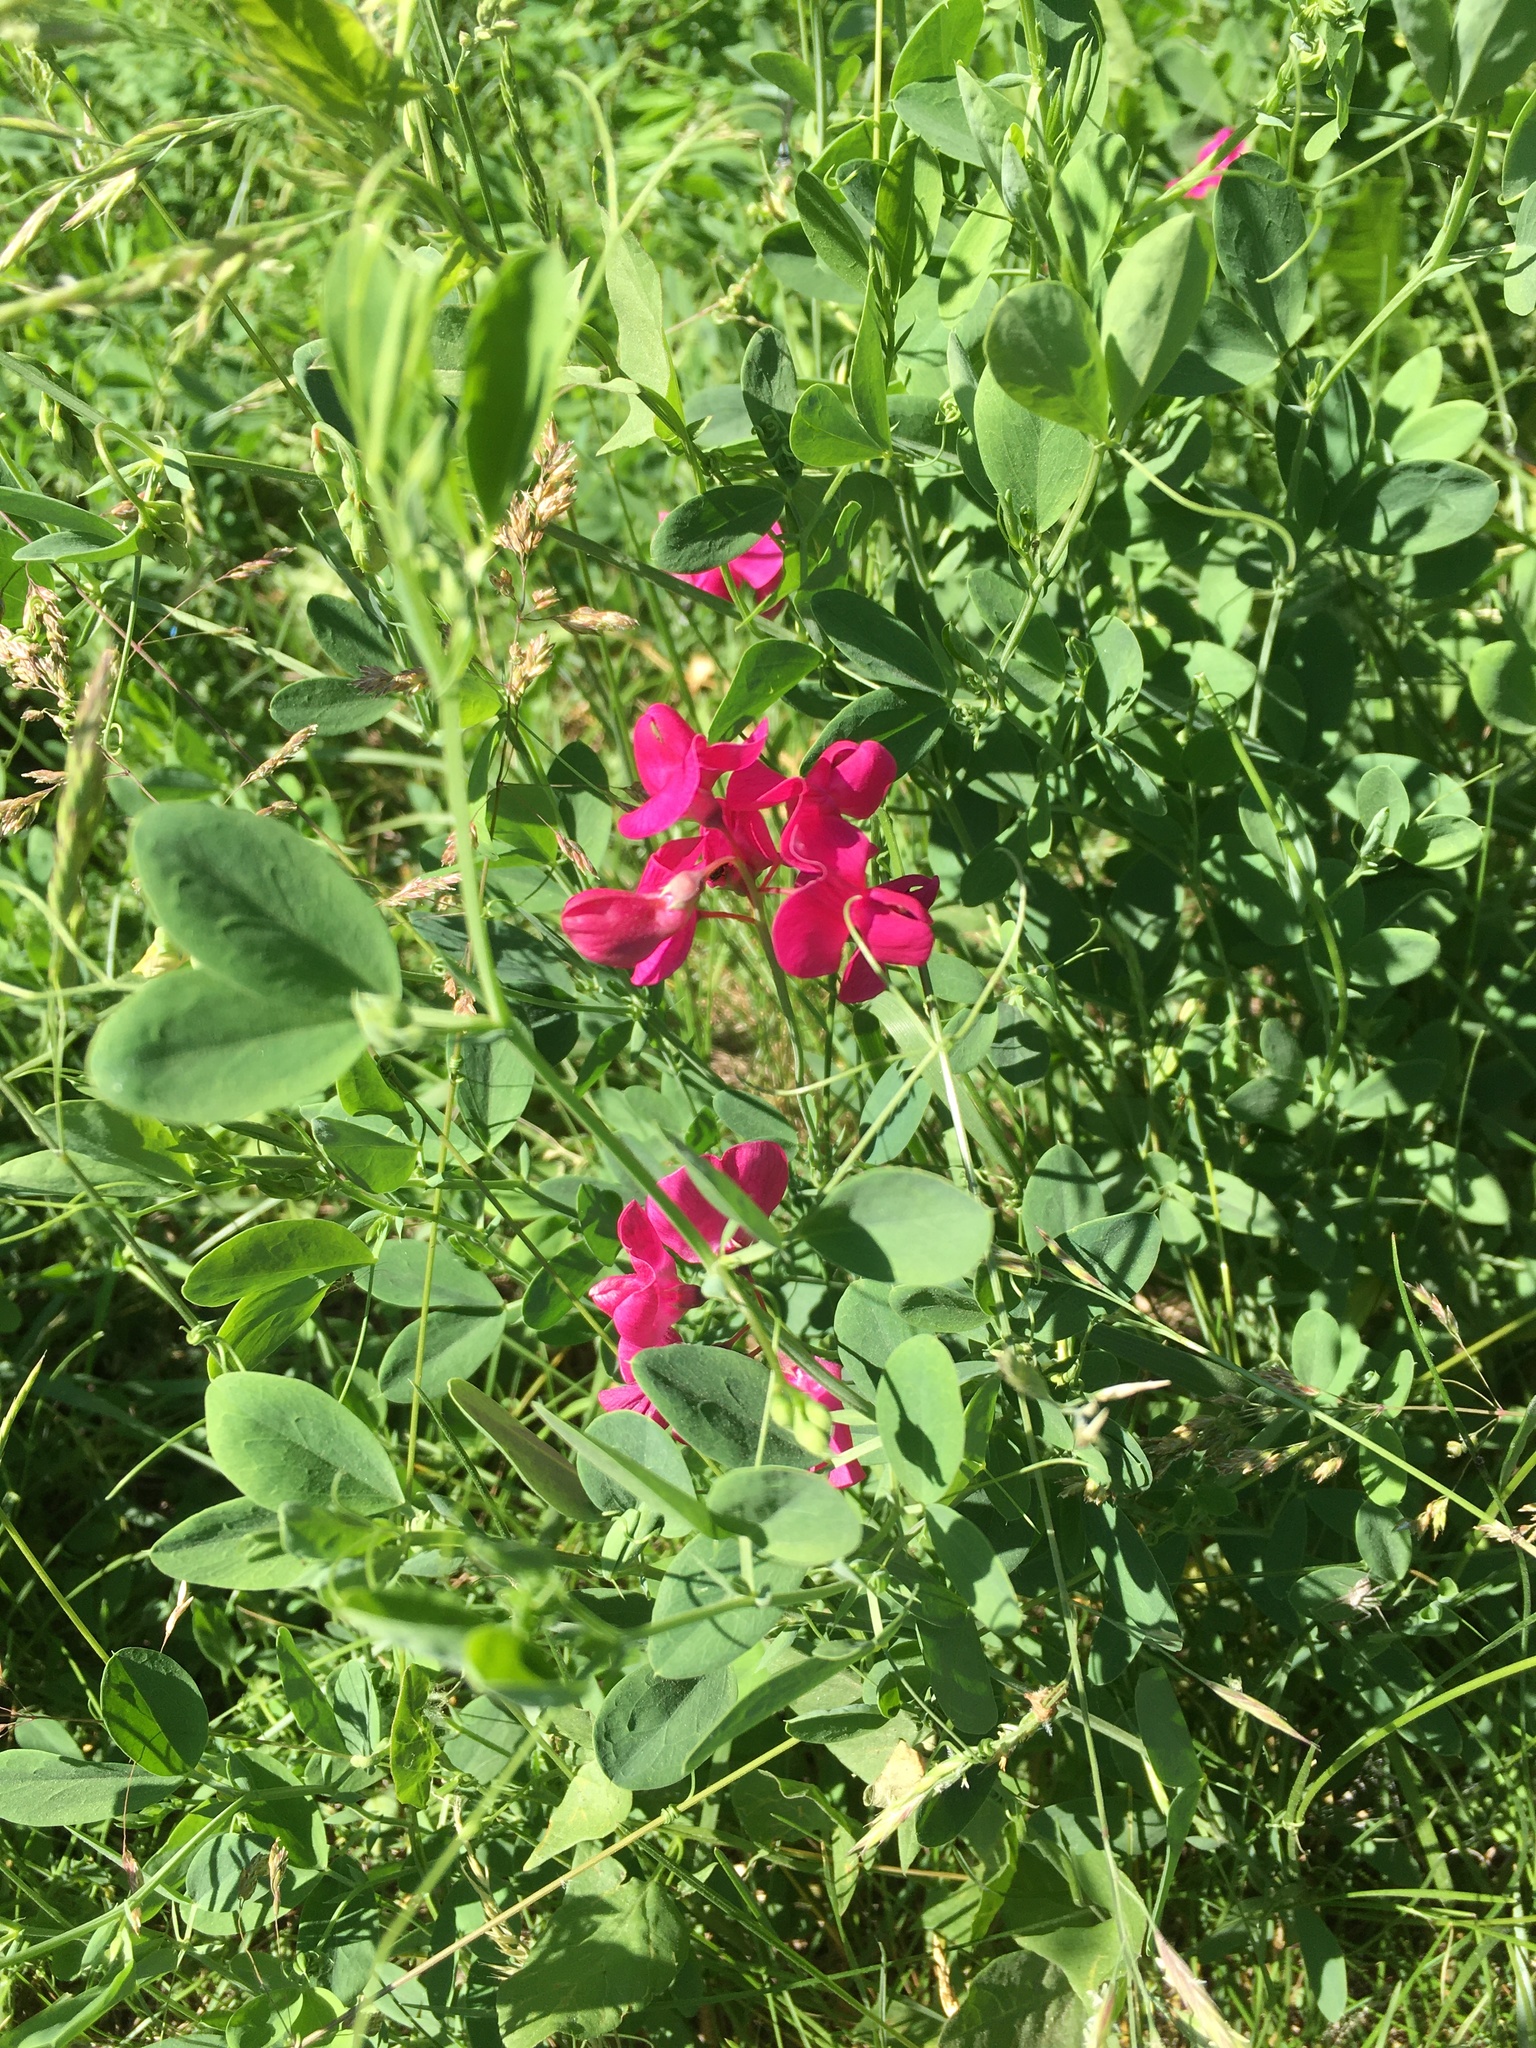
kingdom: Plantae
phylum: Tracheophyta
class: Magnoliopsida
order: Fabales
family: Fabaceae
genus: Lathyrus
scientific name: Lathyrus tuberosus
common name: Tuberous pea
